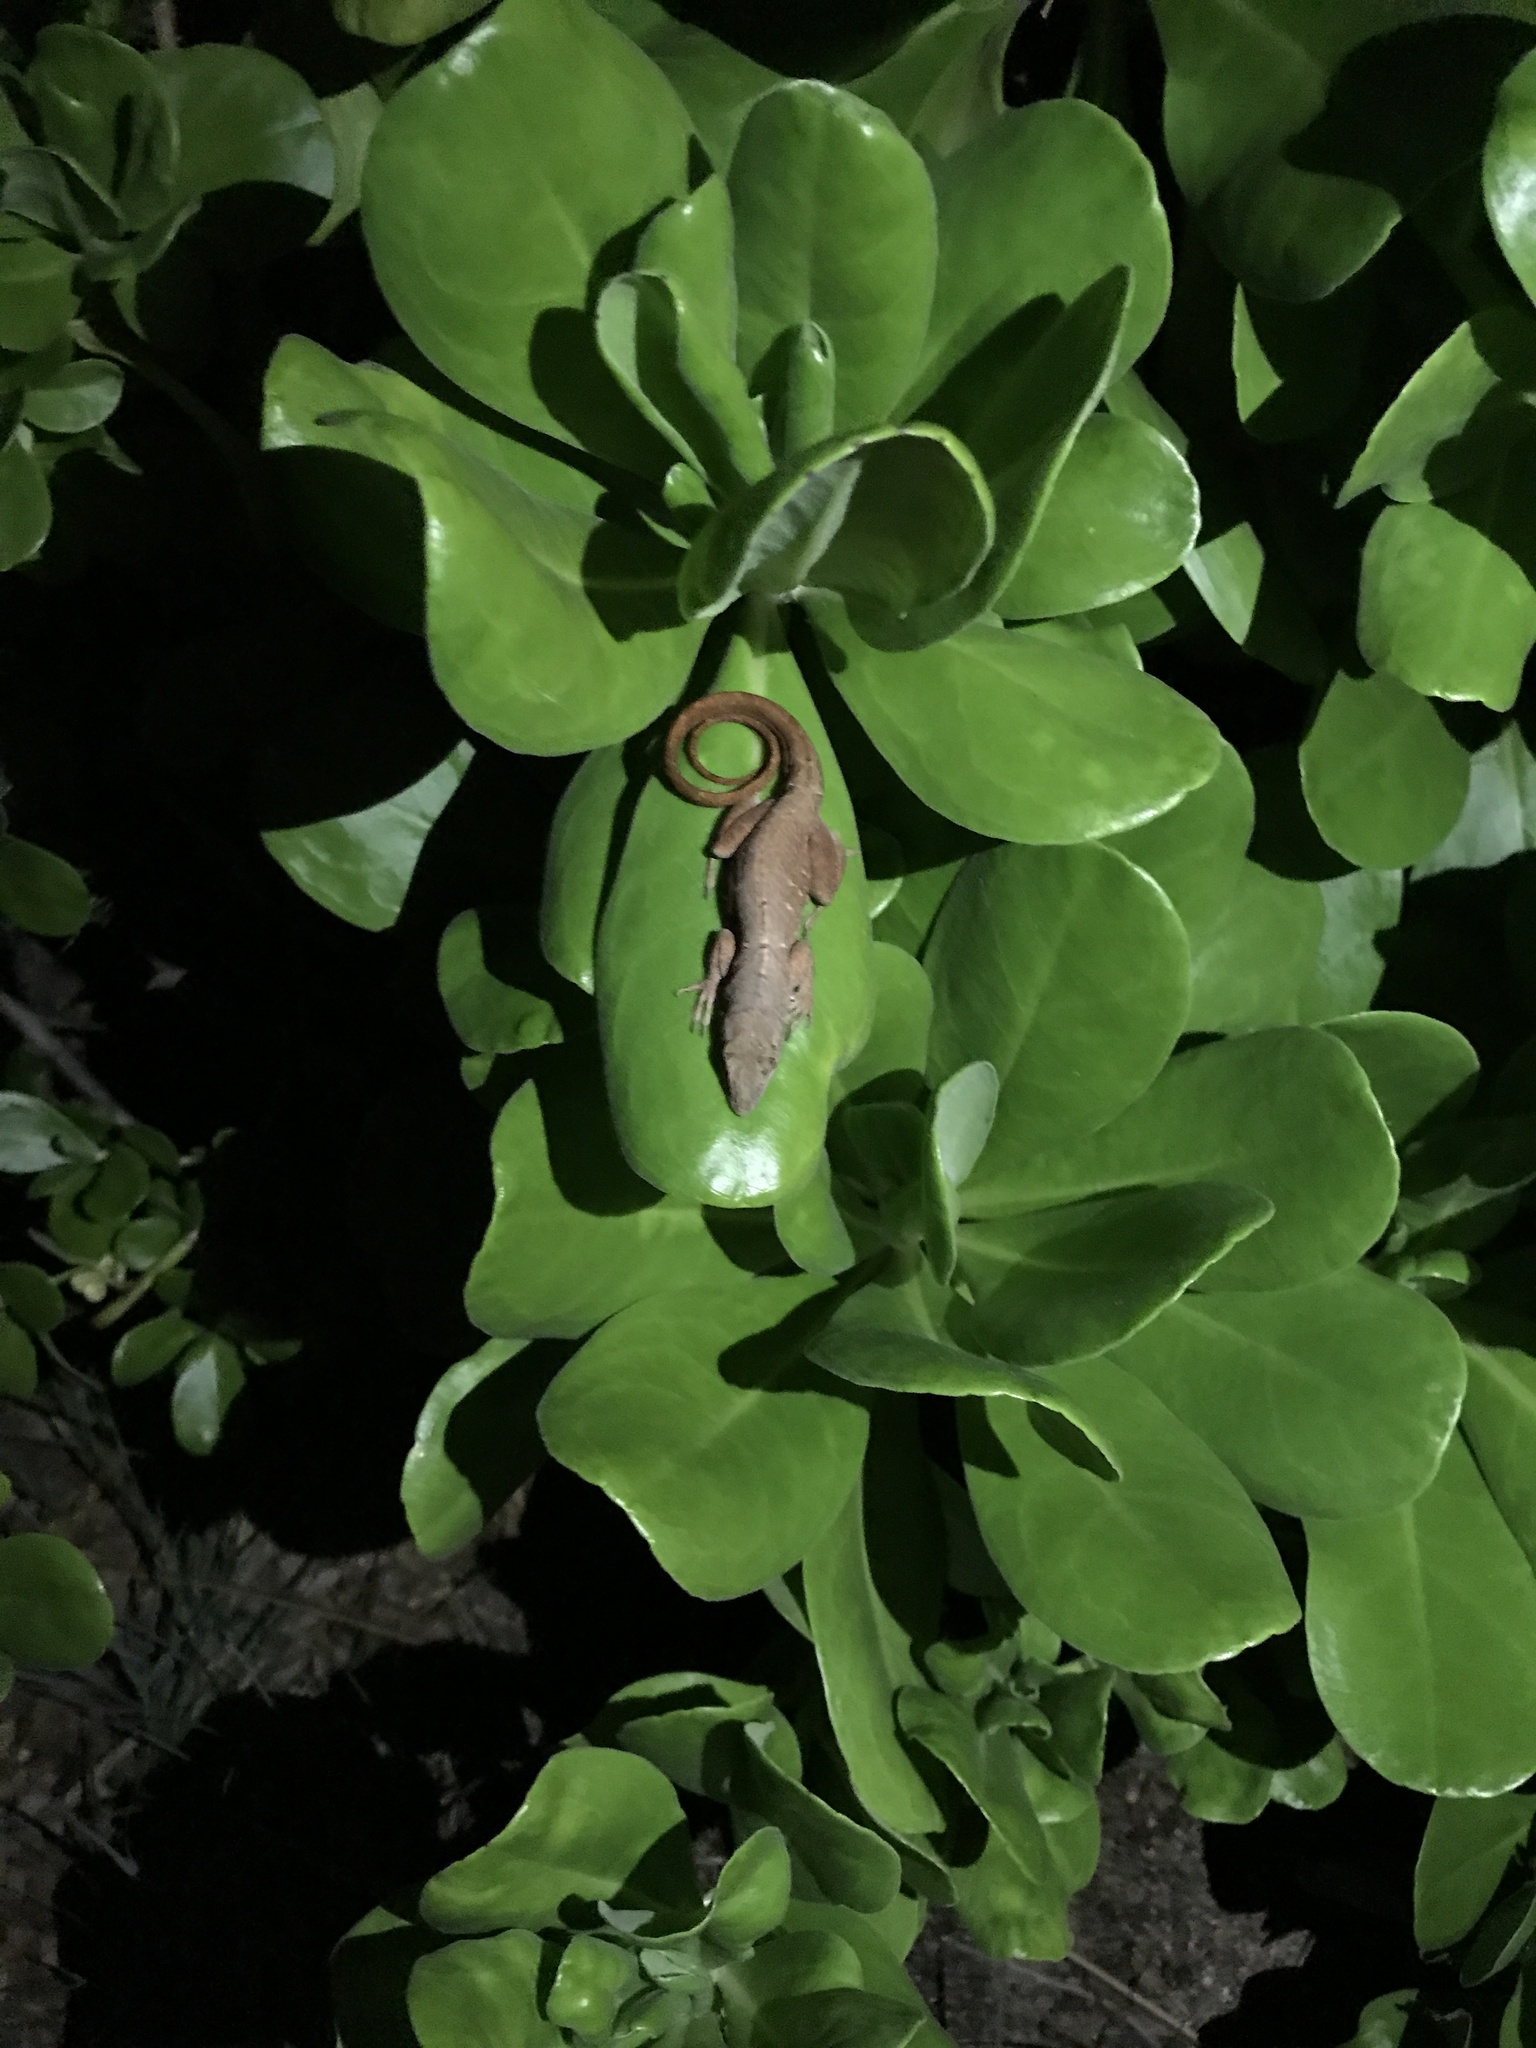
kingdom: Animalia
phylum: Chordata
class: Squamata
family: Dactyloidae
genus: Anolis
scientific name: Anolis sagrei
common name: Brown anole
